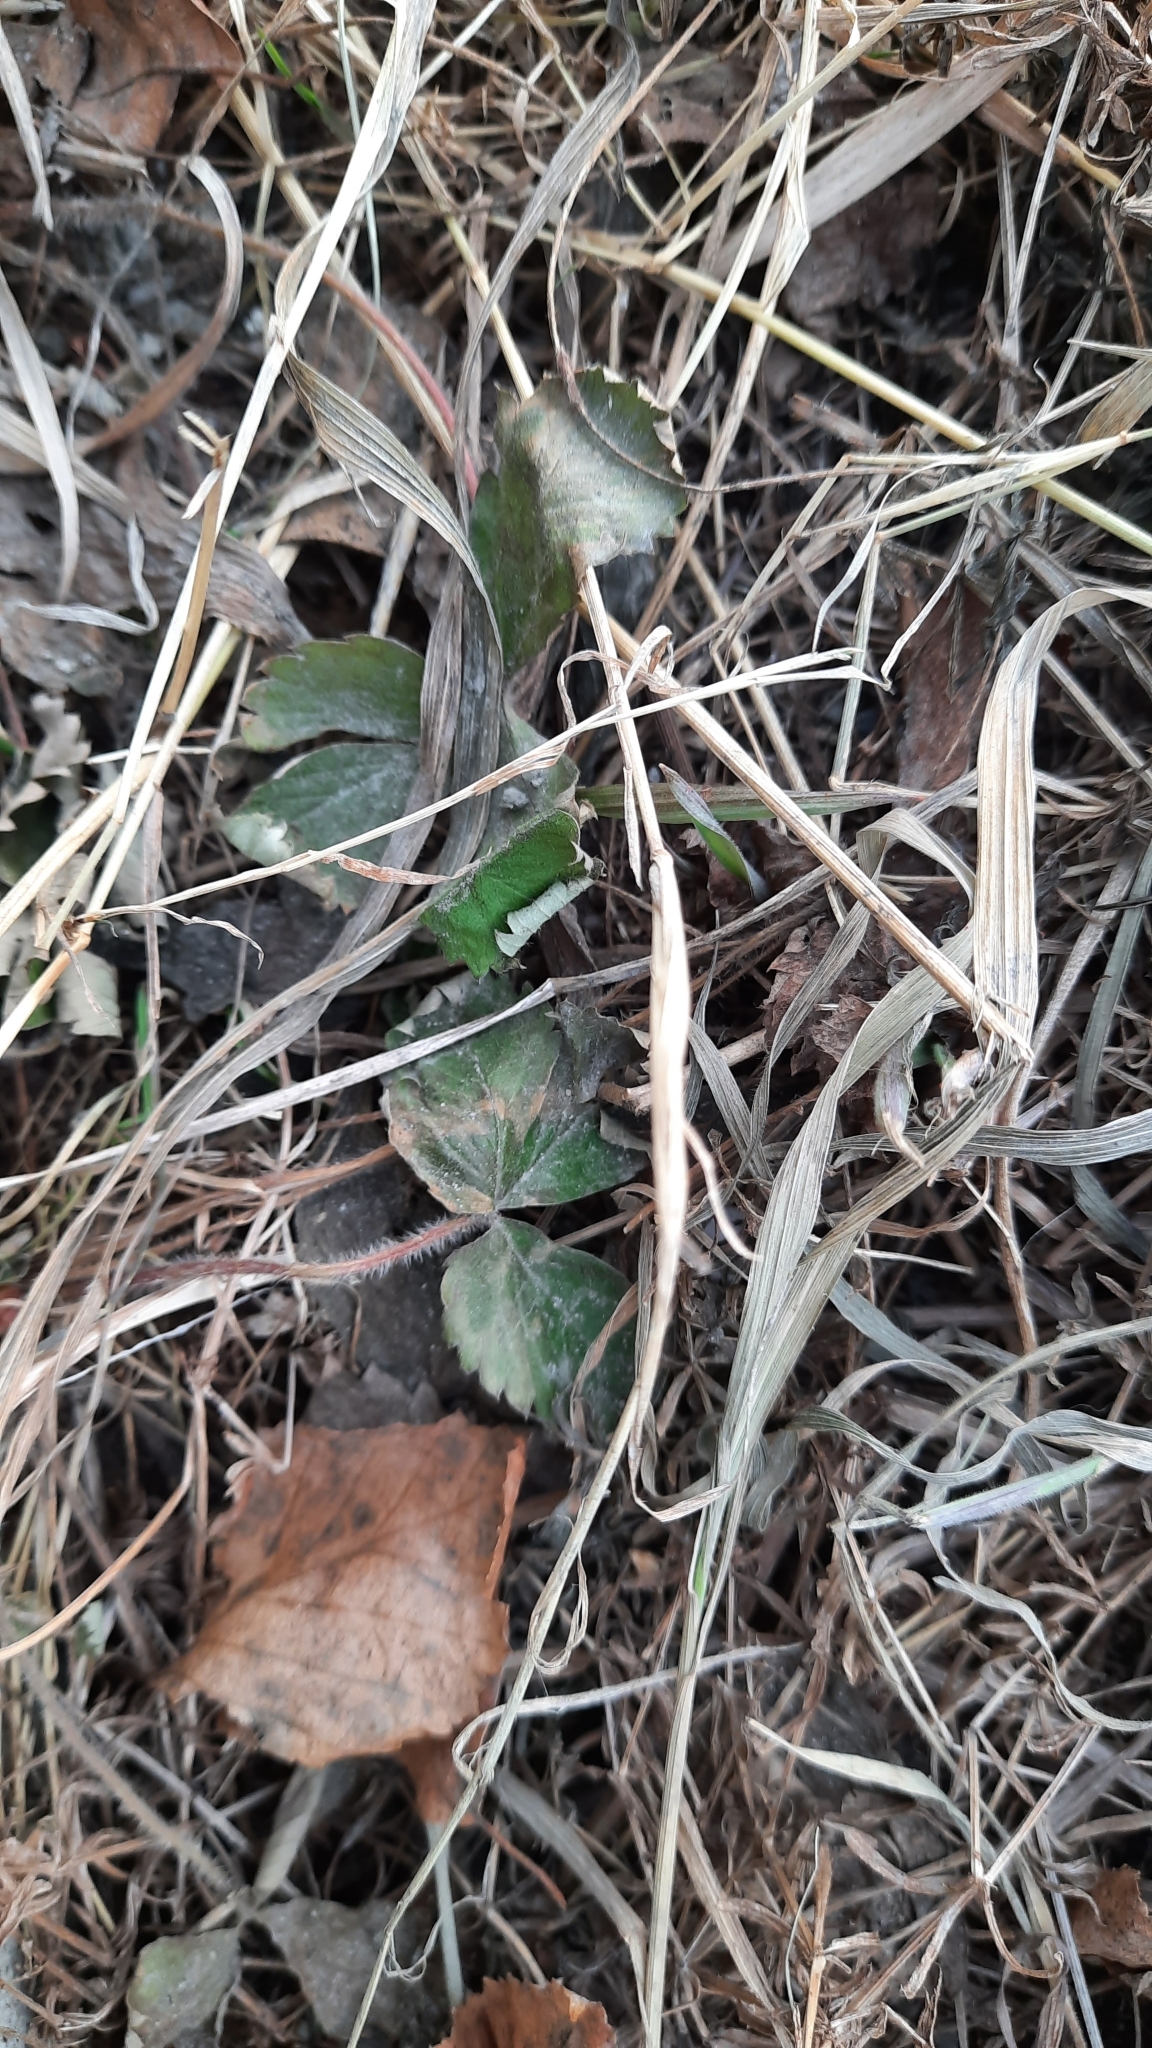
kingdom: Plantae
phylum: Tracheophyta
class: Magnoliopsida
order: Rosales
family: Rosaceae
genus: Fragaria
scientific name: Fragaria vesca
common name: Wild strawberry
